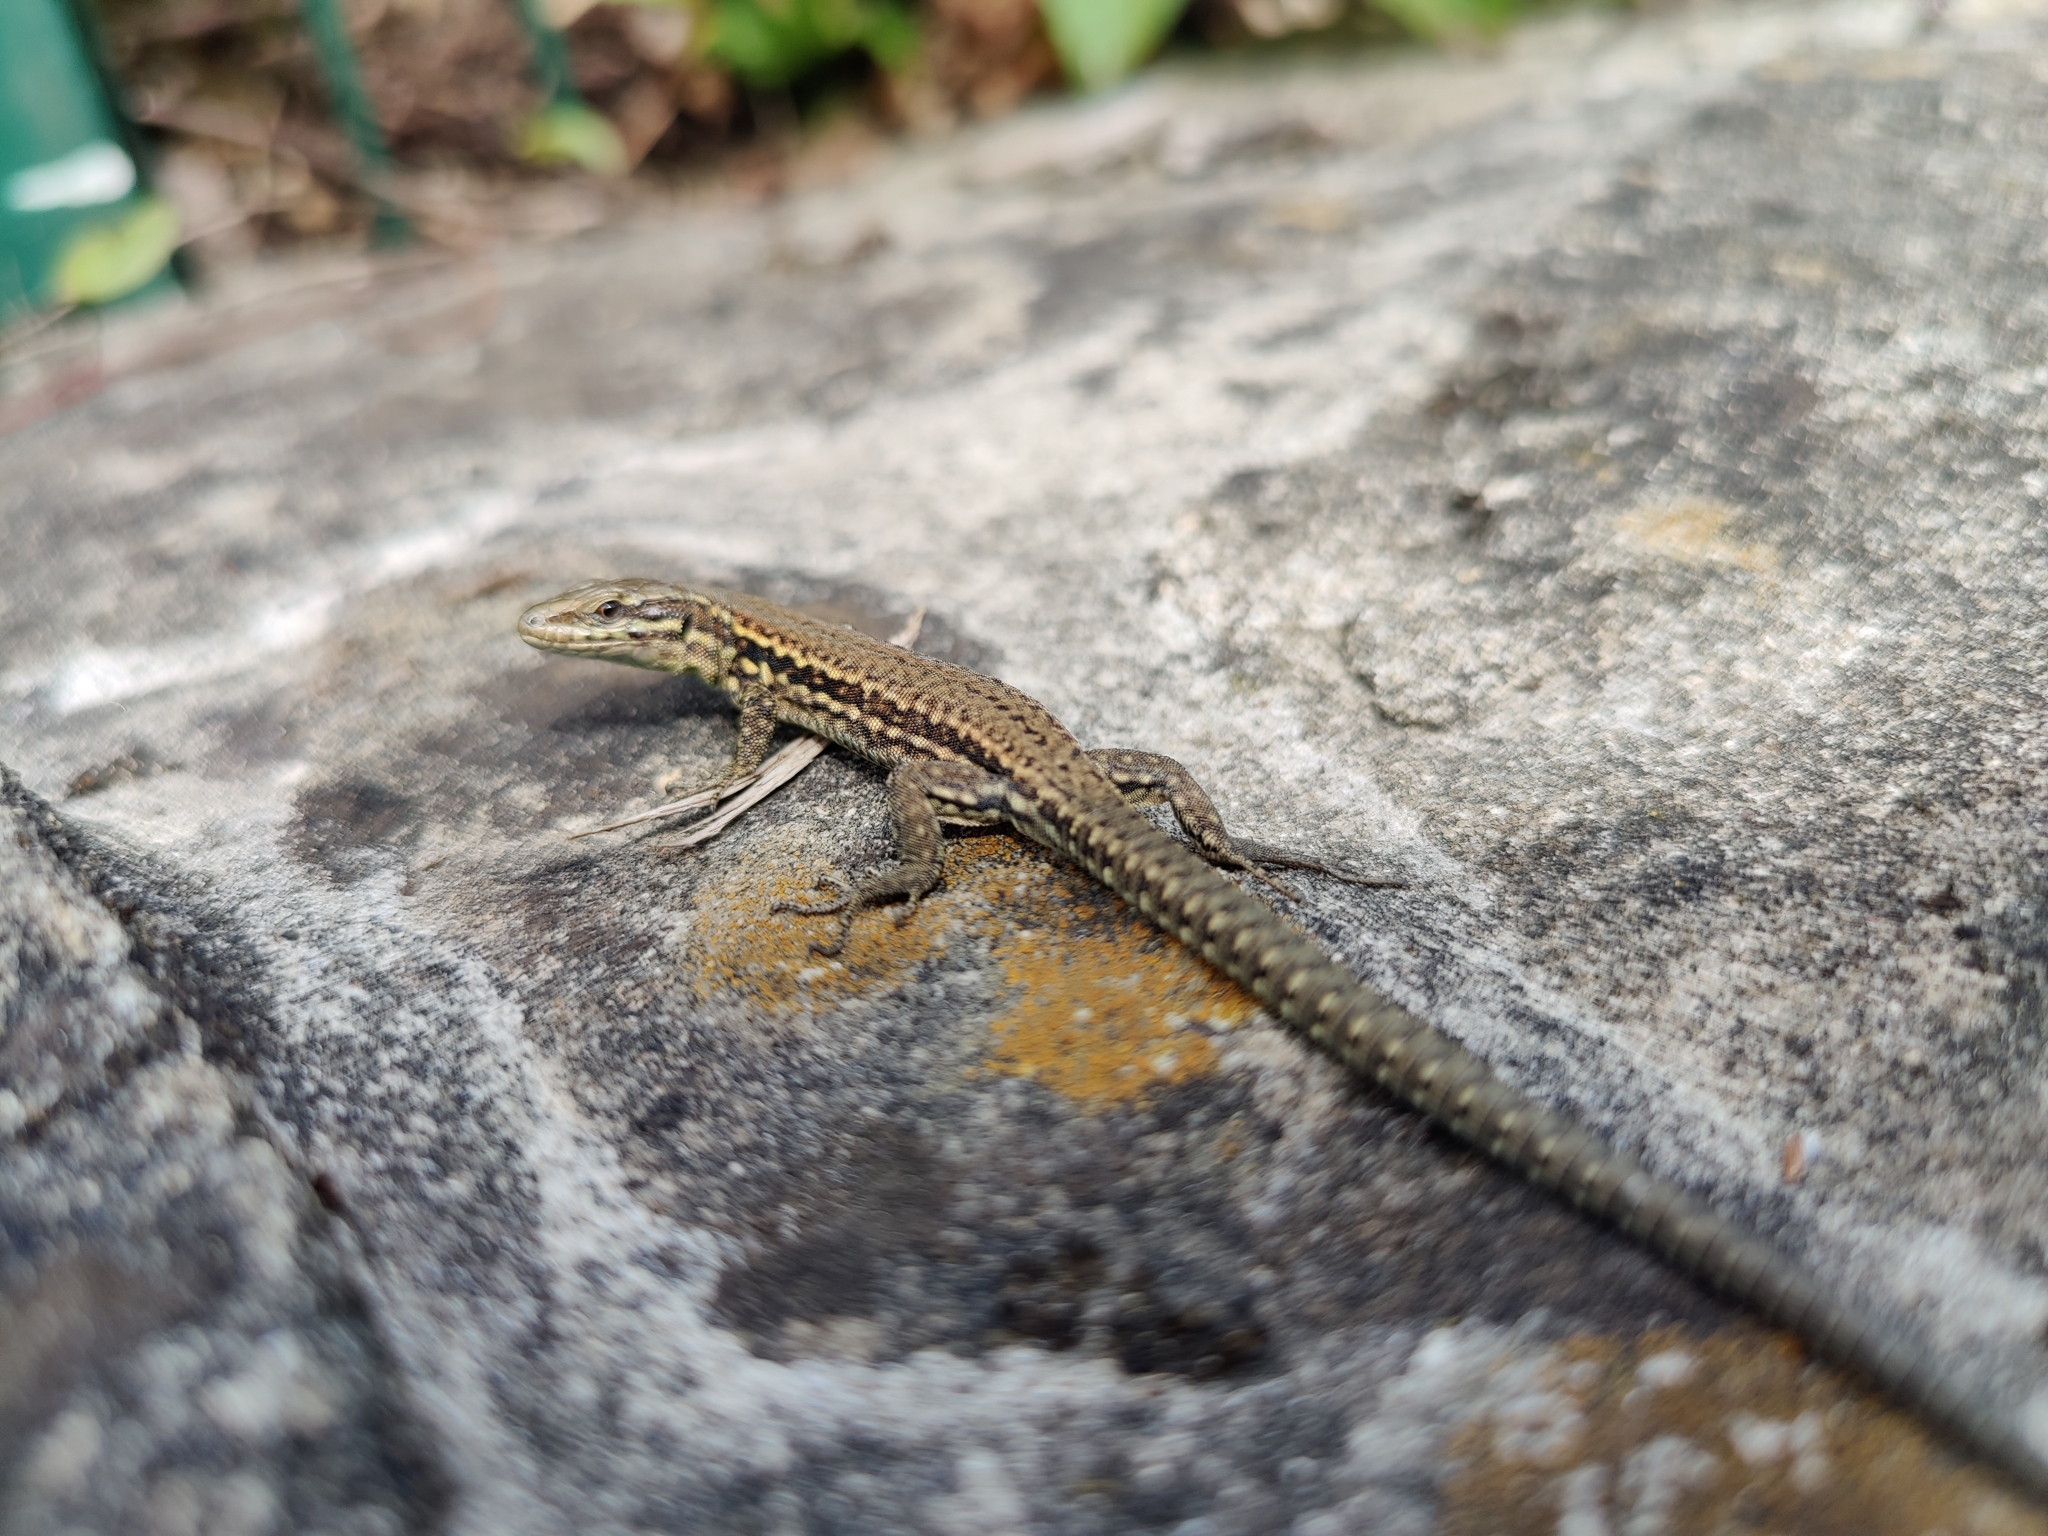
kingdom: Animalia
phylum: Chordata
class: Squamata
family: Lacertidae
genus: Podarcis
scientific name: Podarcis muralis
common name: Common wall lizard
